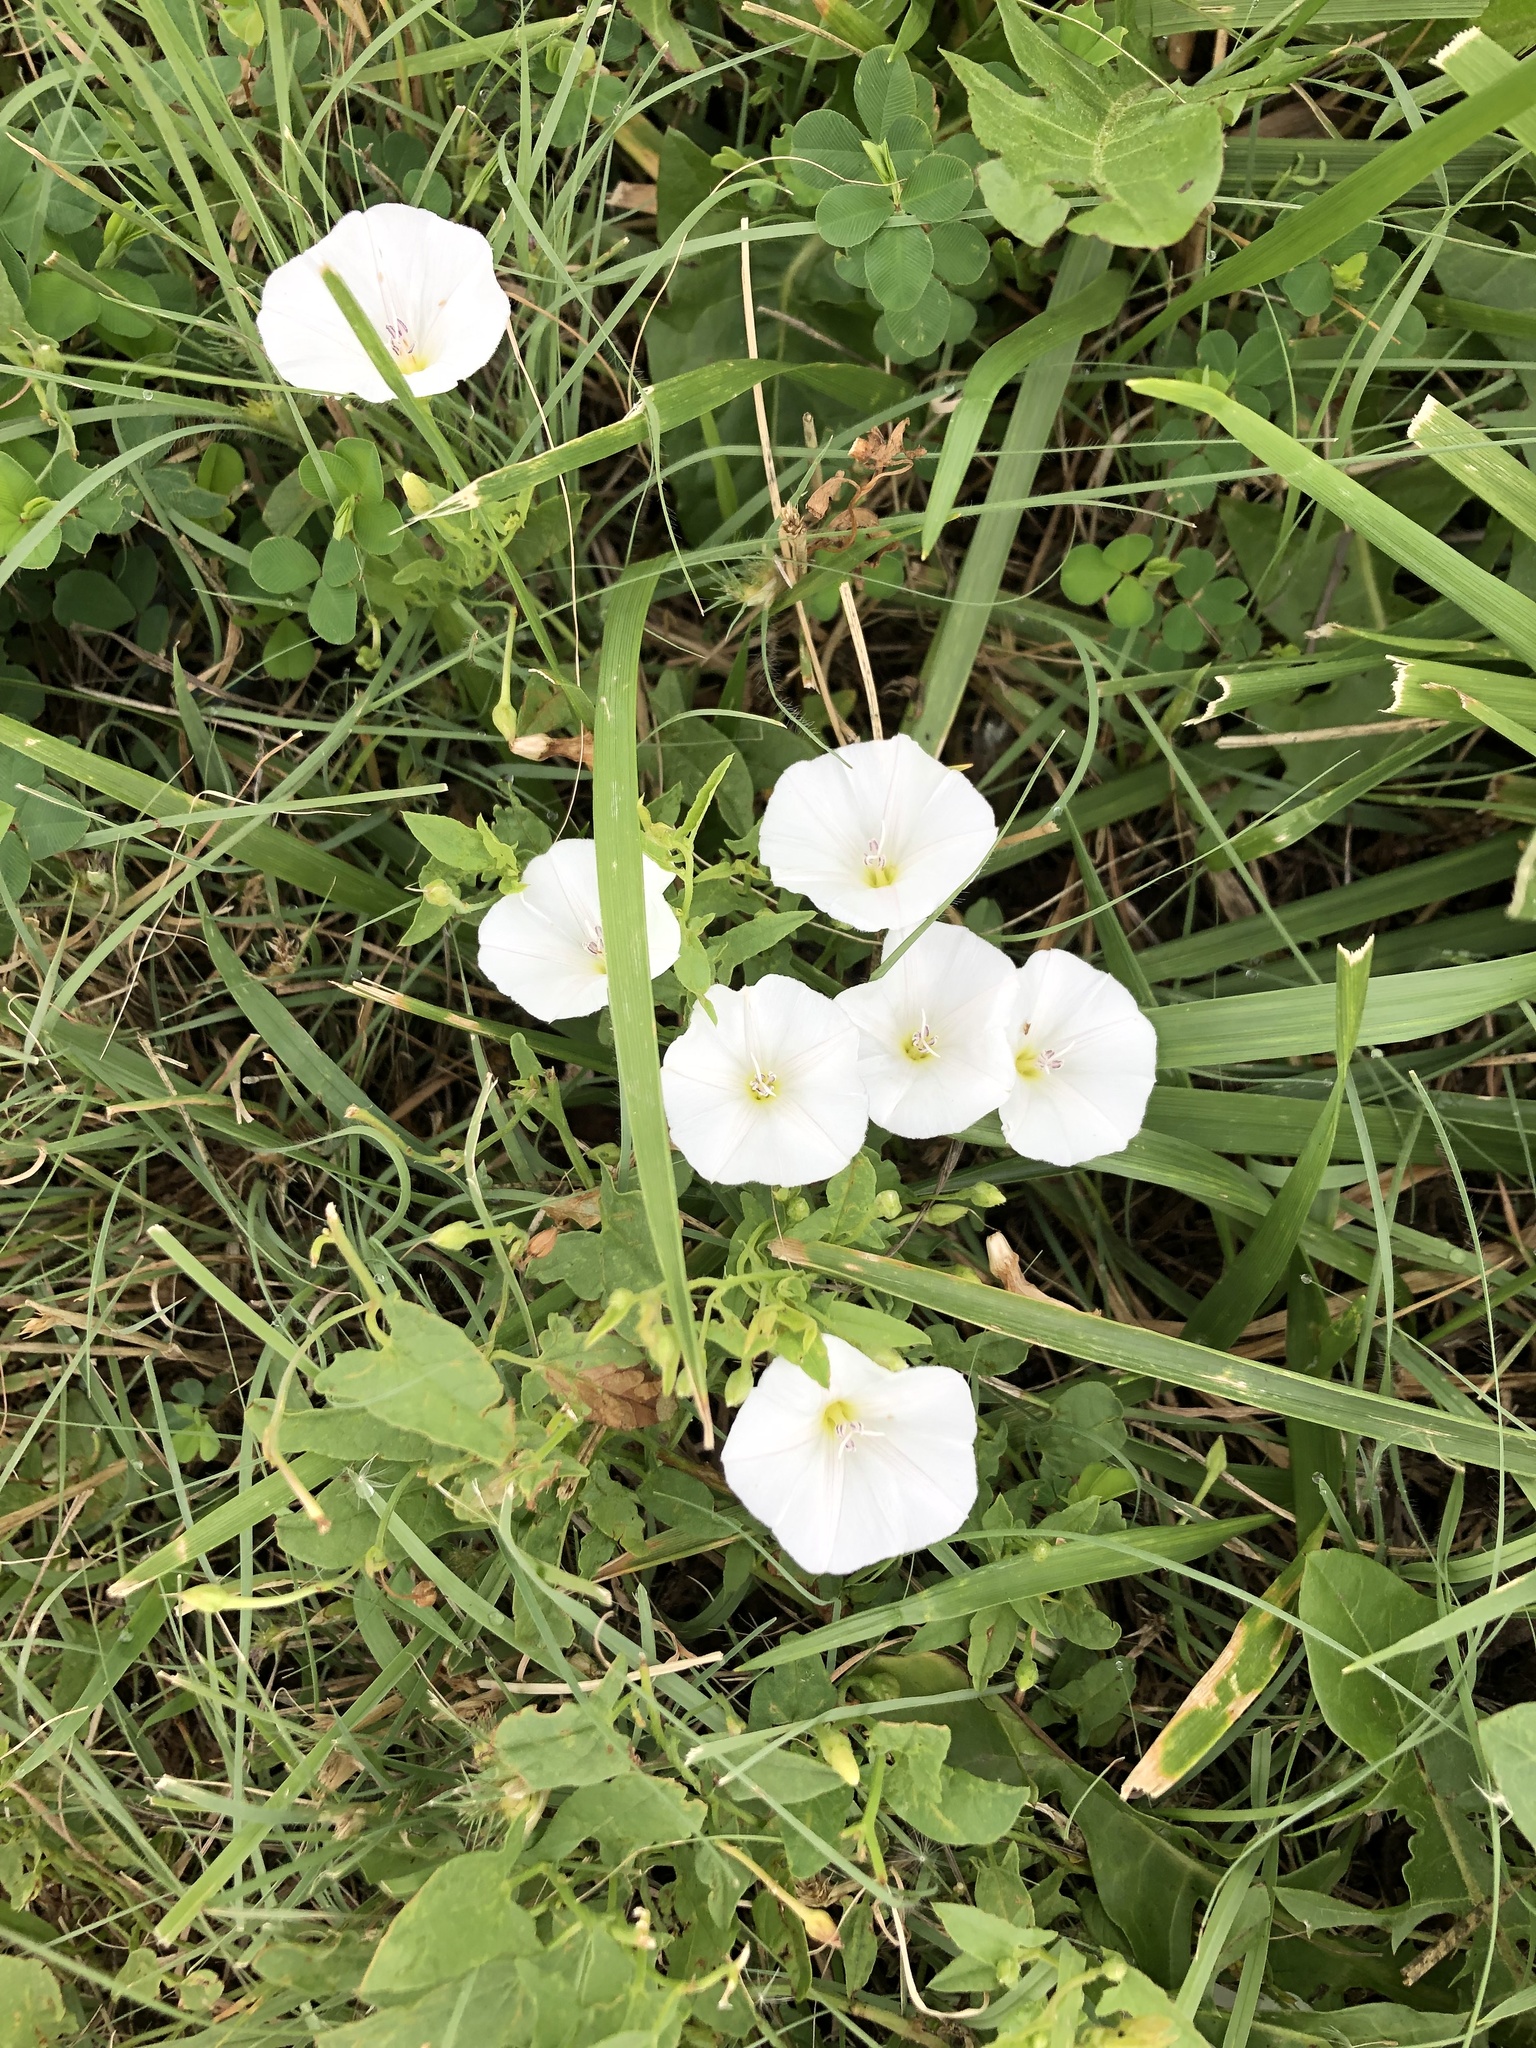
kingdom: Plantae
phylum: Tracheophyta
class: Magnoliopsida
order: Solanales
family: Convolvulaceae
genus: Convolvulus
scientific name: Convolvulus arvensis
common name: Field bindweed
